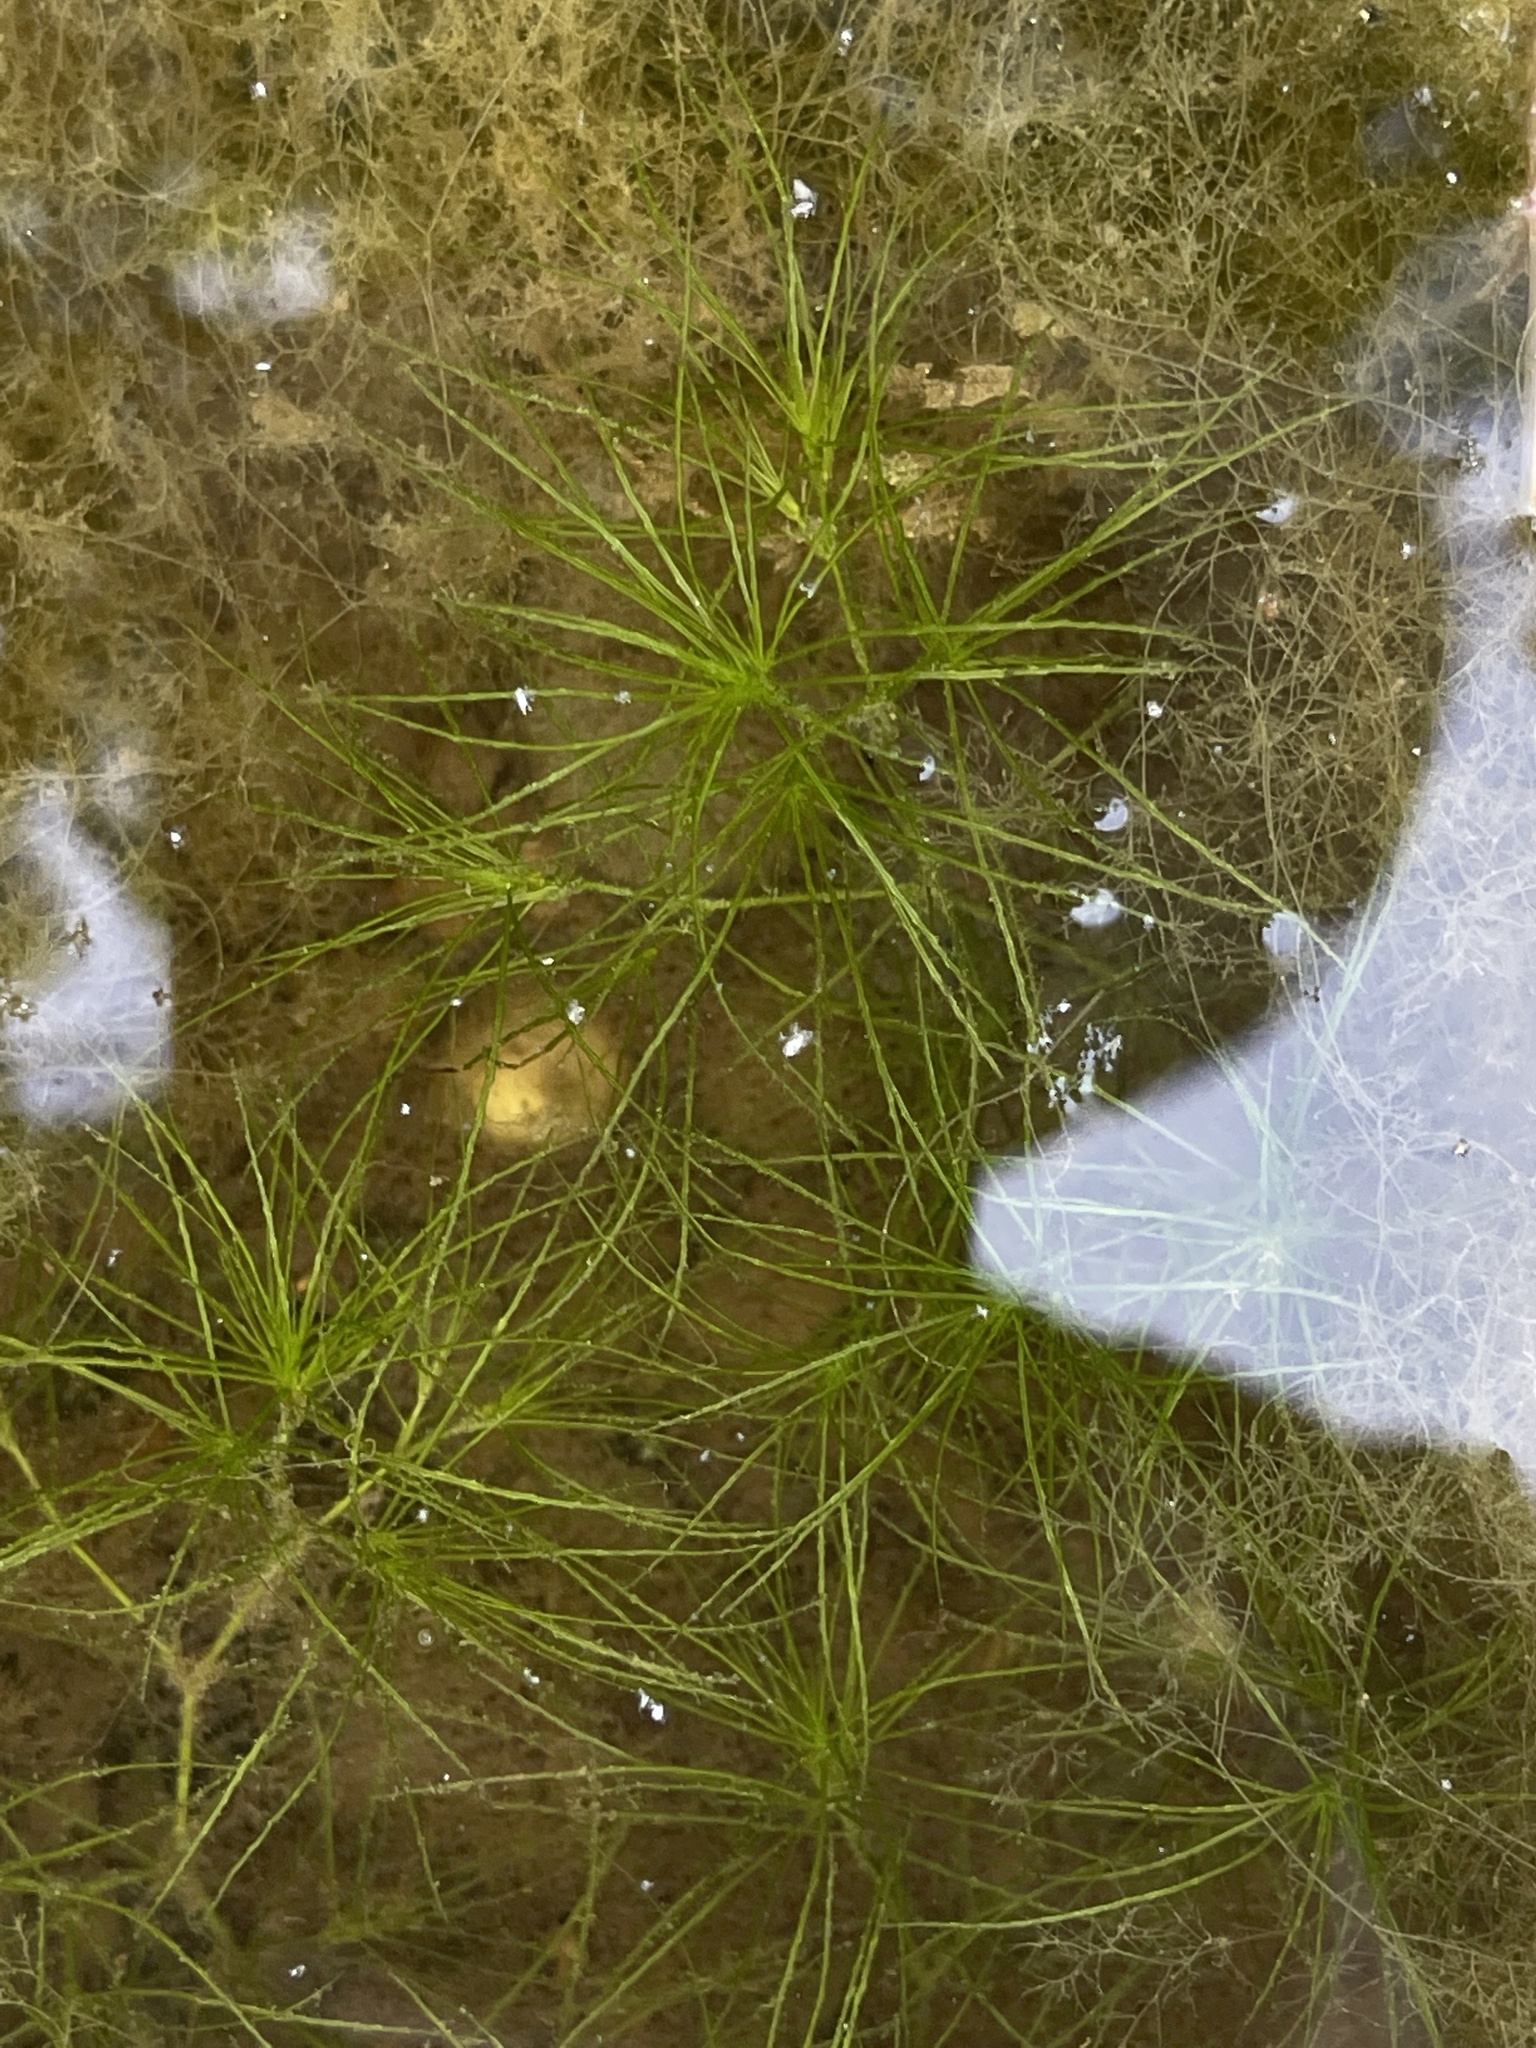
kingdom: Plantae
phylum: Tracheophyta
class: Liliopsida
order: Alismatales
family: Hydrocharitaceae
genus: Najas
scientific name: Najas minor
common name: Brittle naiad
